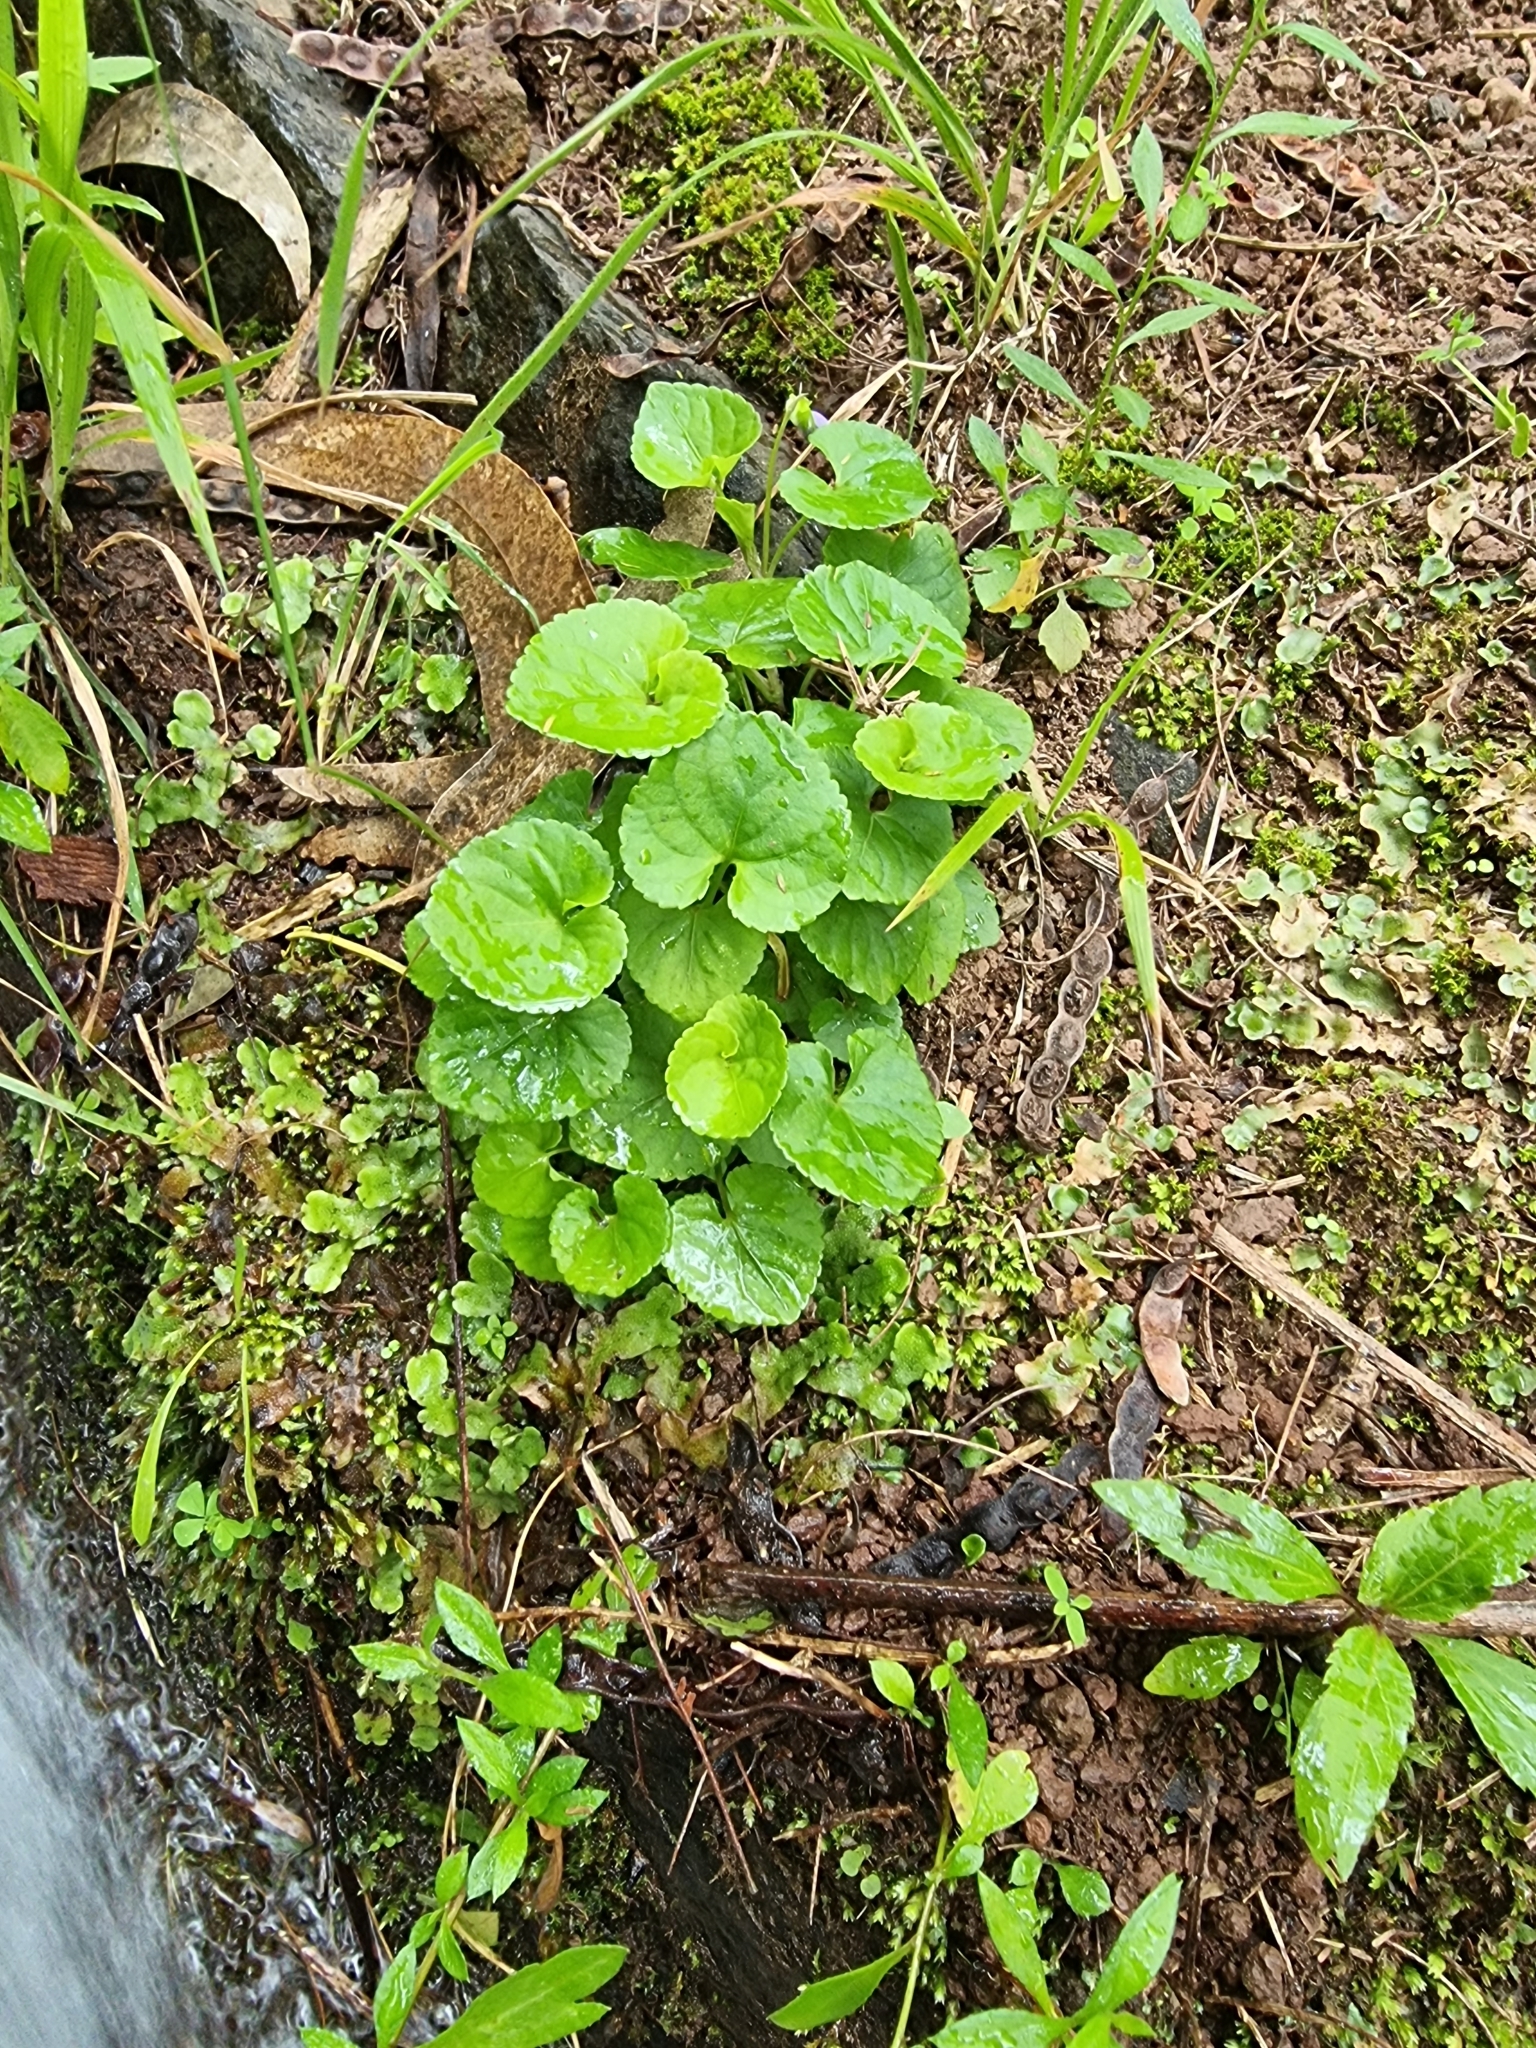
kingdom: Plantae
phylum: Tracheophyta
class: Magnoliopsida
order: Malpighiales
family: Violaceae
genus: Viola
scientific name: Viola riviniana
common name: Common dog-violet
